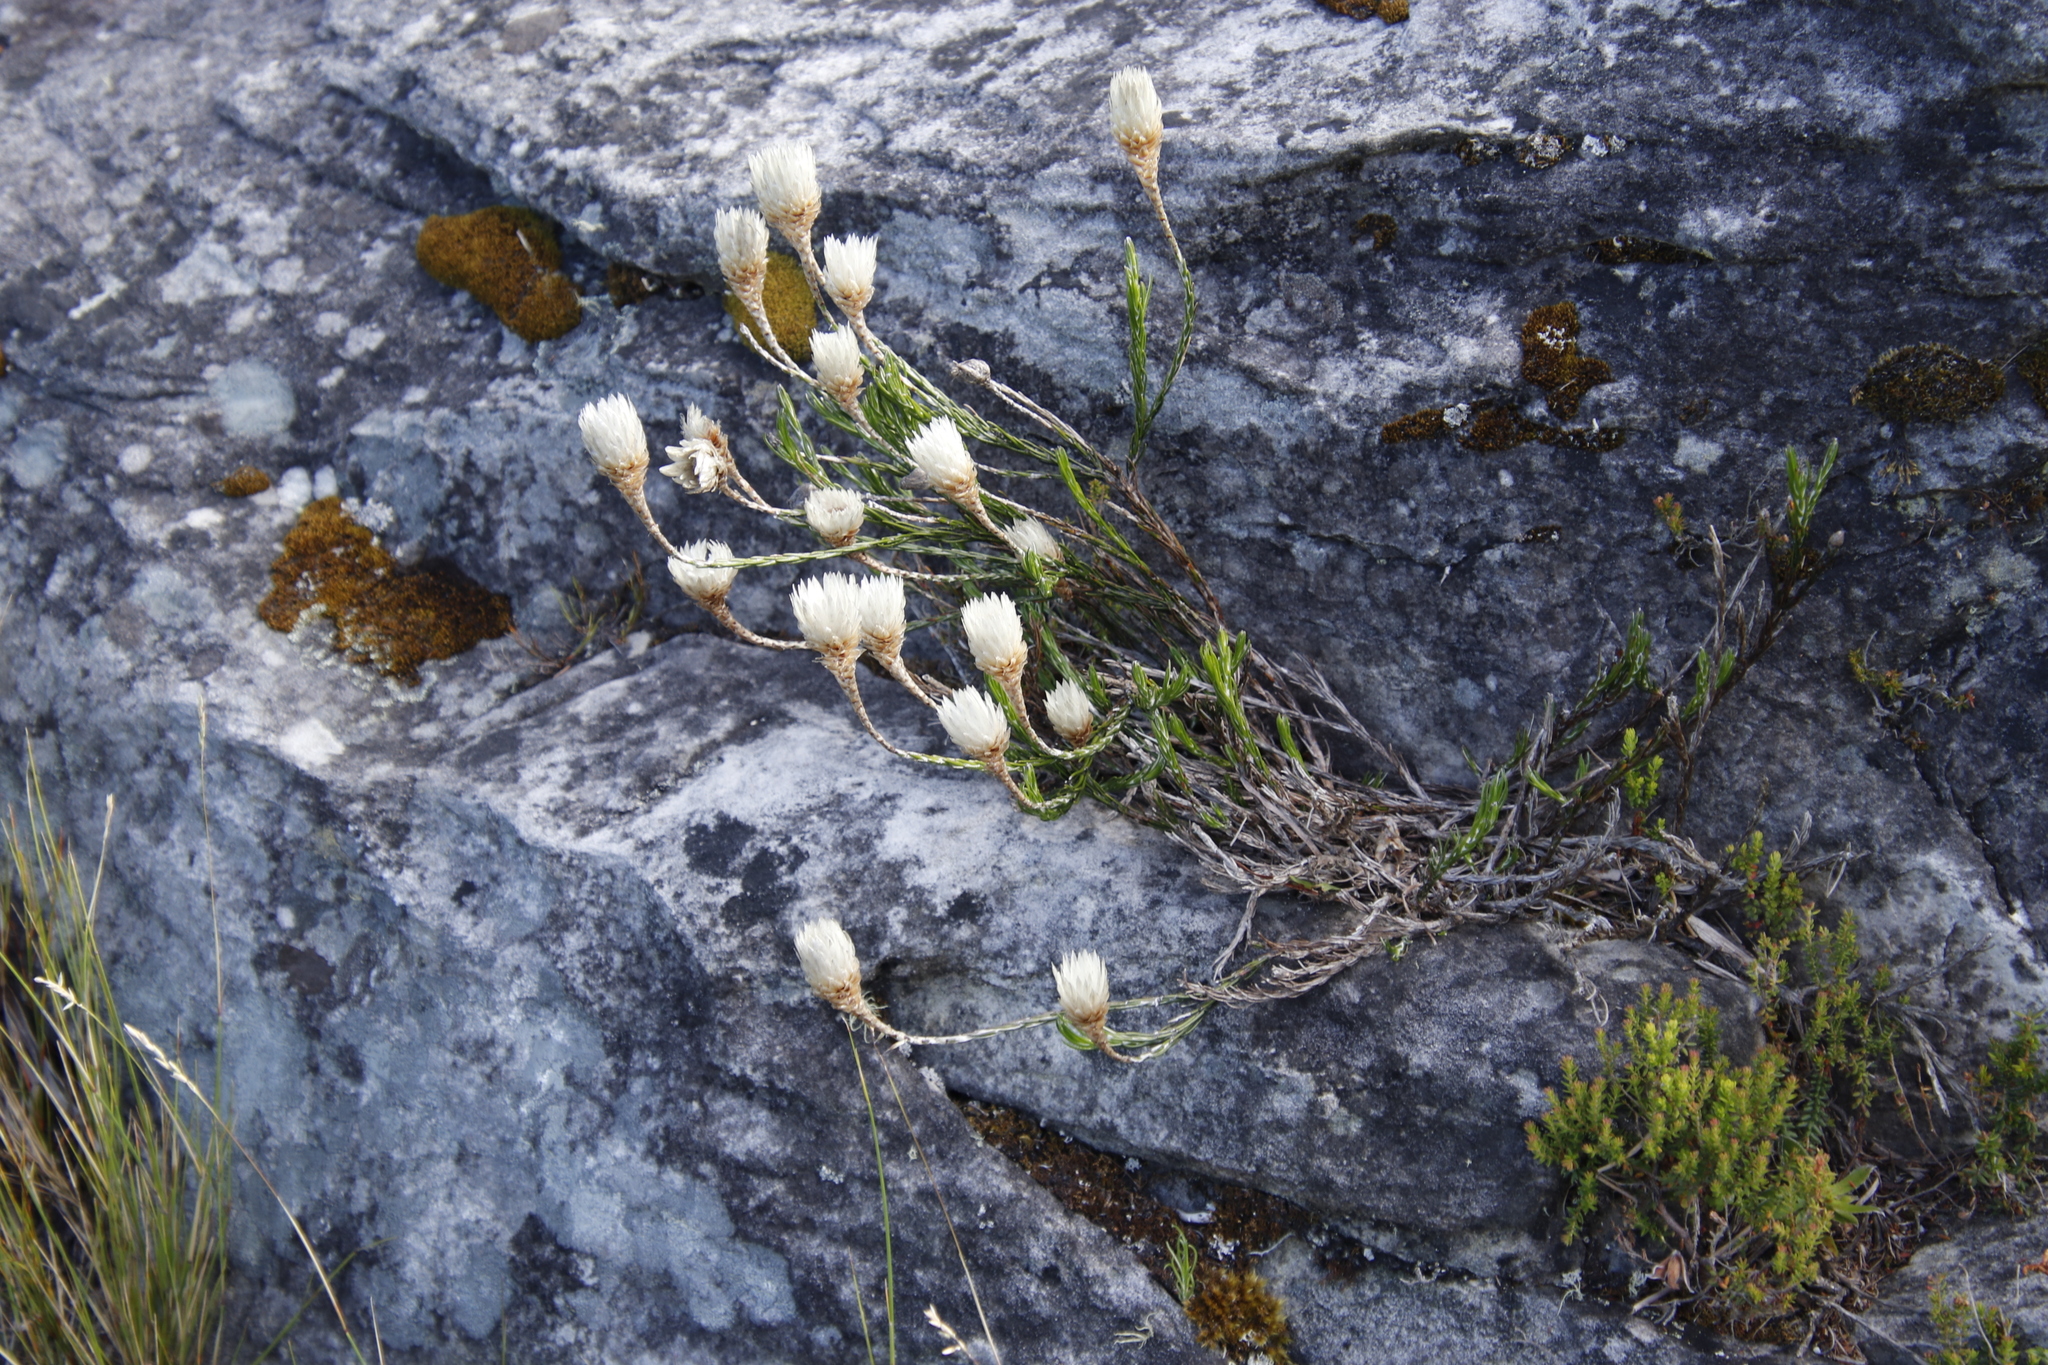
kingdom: Plantae
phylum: Tracheophyta
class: Magnoliopsida
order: Asterales
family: Asteraceae
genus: Edmondia
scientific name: Edmondia pinifolia
